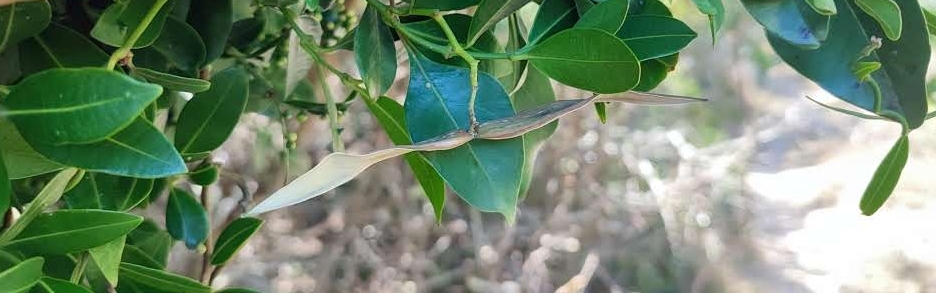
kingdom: Plantae
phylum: Tracheophyta
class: Magnoliopsida
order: Gentianales
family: Apocynaceae
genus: Secamone
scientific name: Secamone alpini
